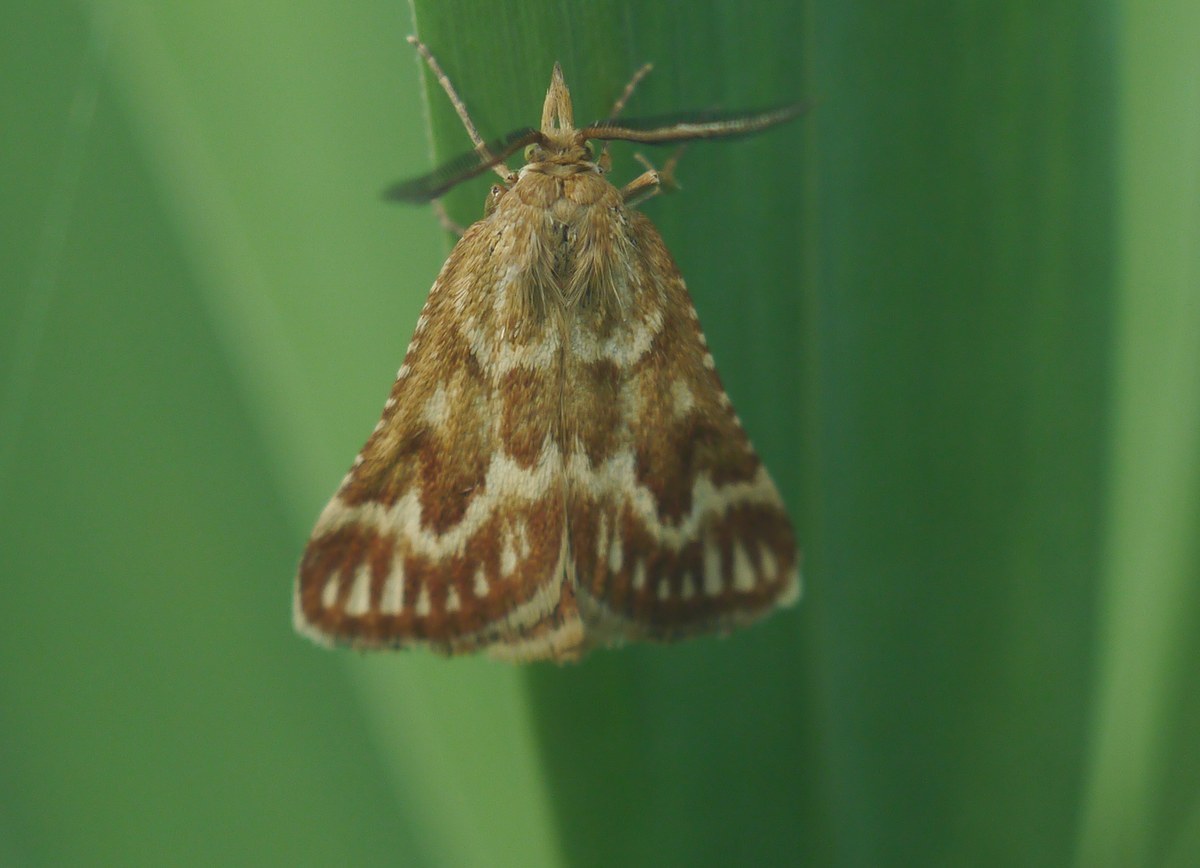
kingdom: Animalia
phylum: Arthropoda
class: Insecta
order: Lepidoptera
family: Pyralidae
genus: Synaphe
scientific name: Synaphe moldavica
